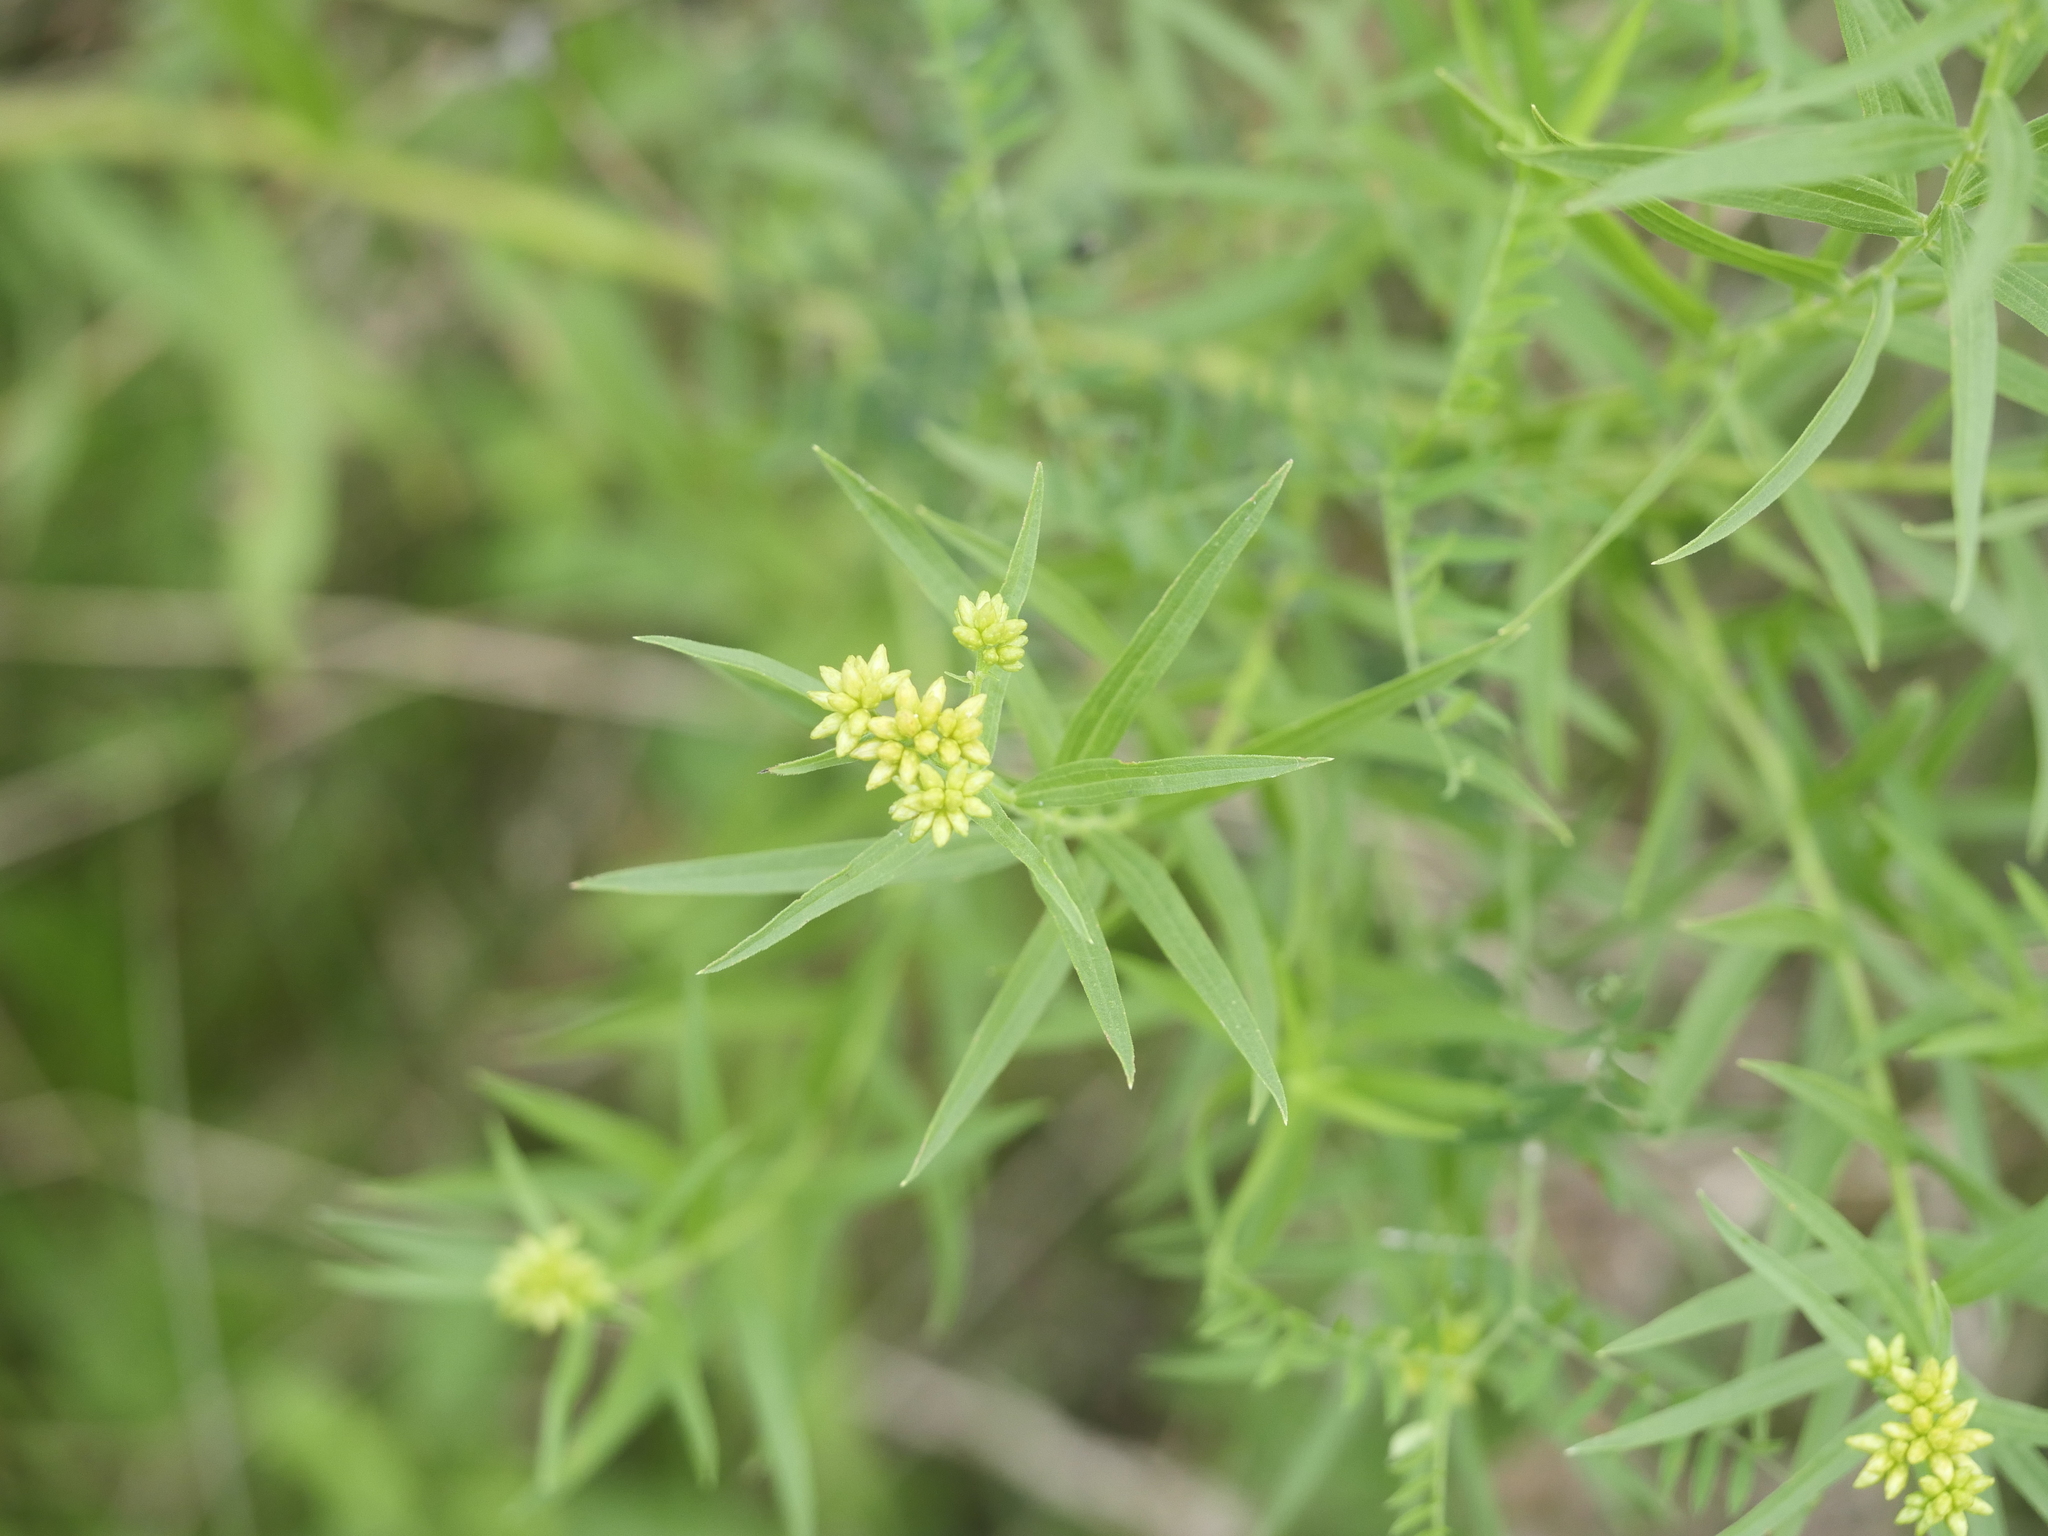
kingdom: Plantae
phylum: Tracheophyta
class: Magnoliopsida
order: Asterales
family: Asteraceae
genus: Euthamia
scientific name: Euthamia graminifolia
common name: Common goldentop
